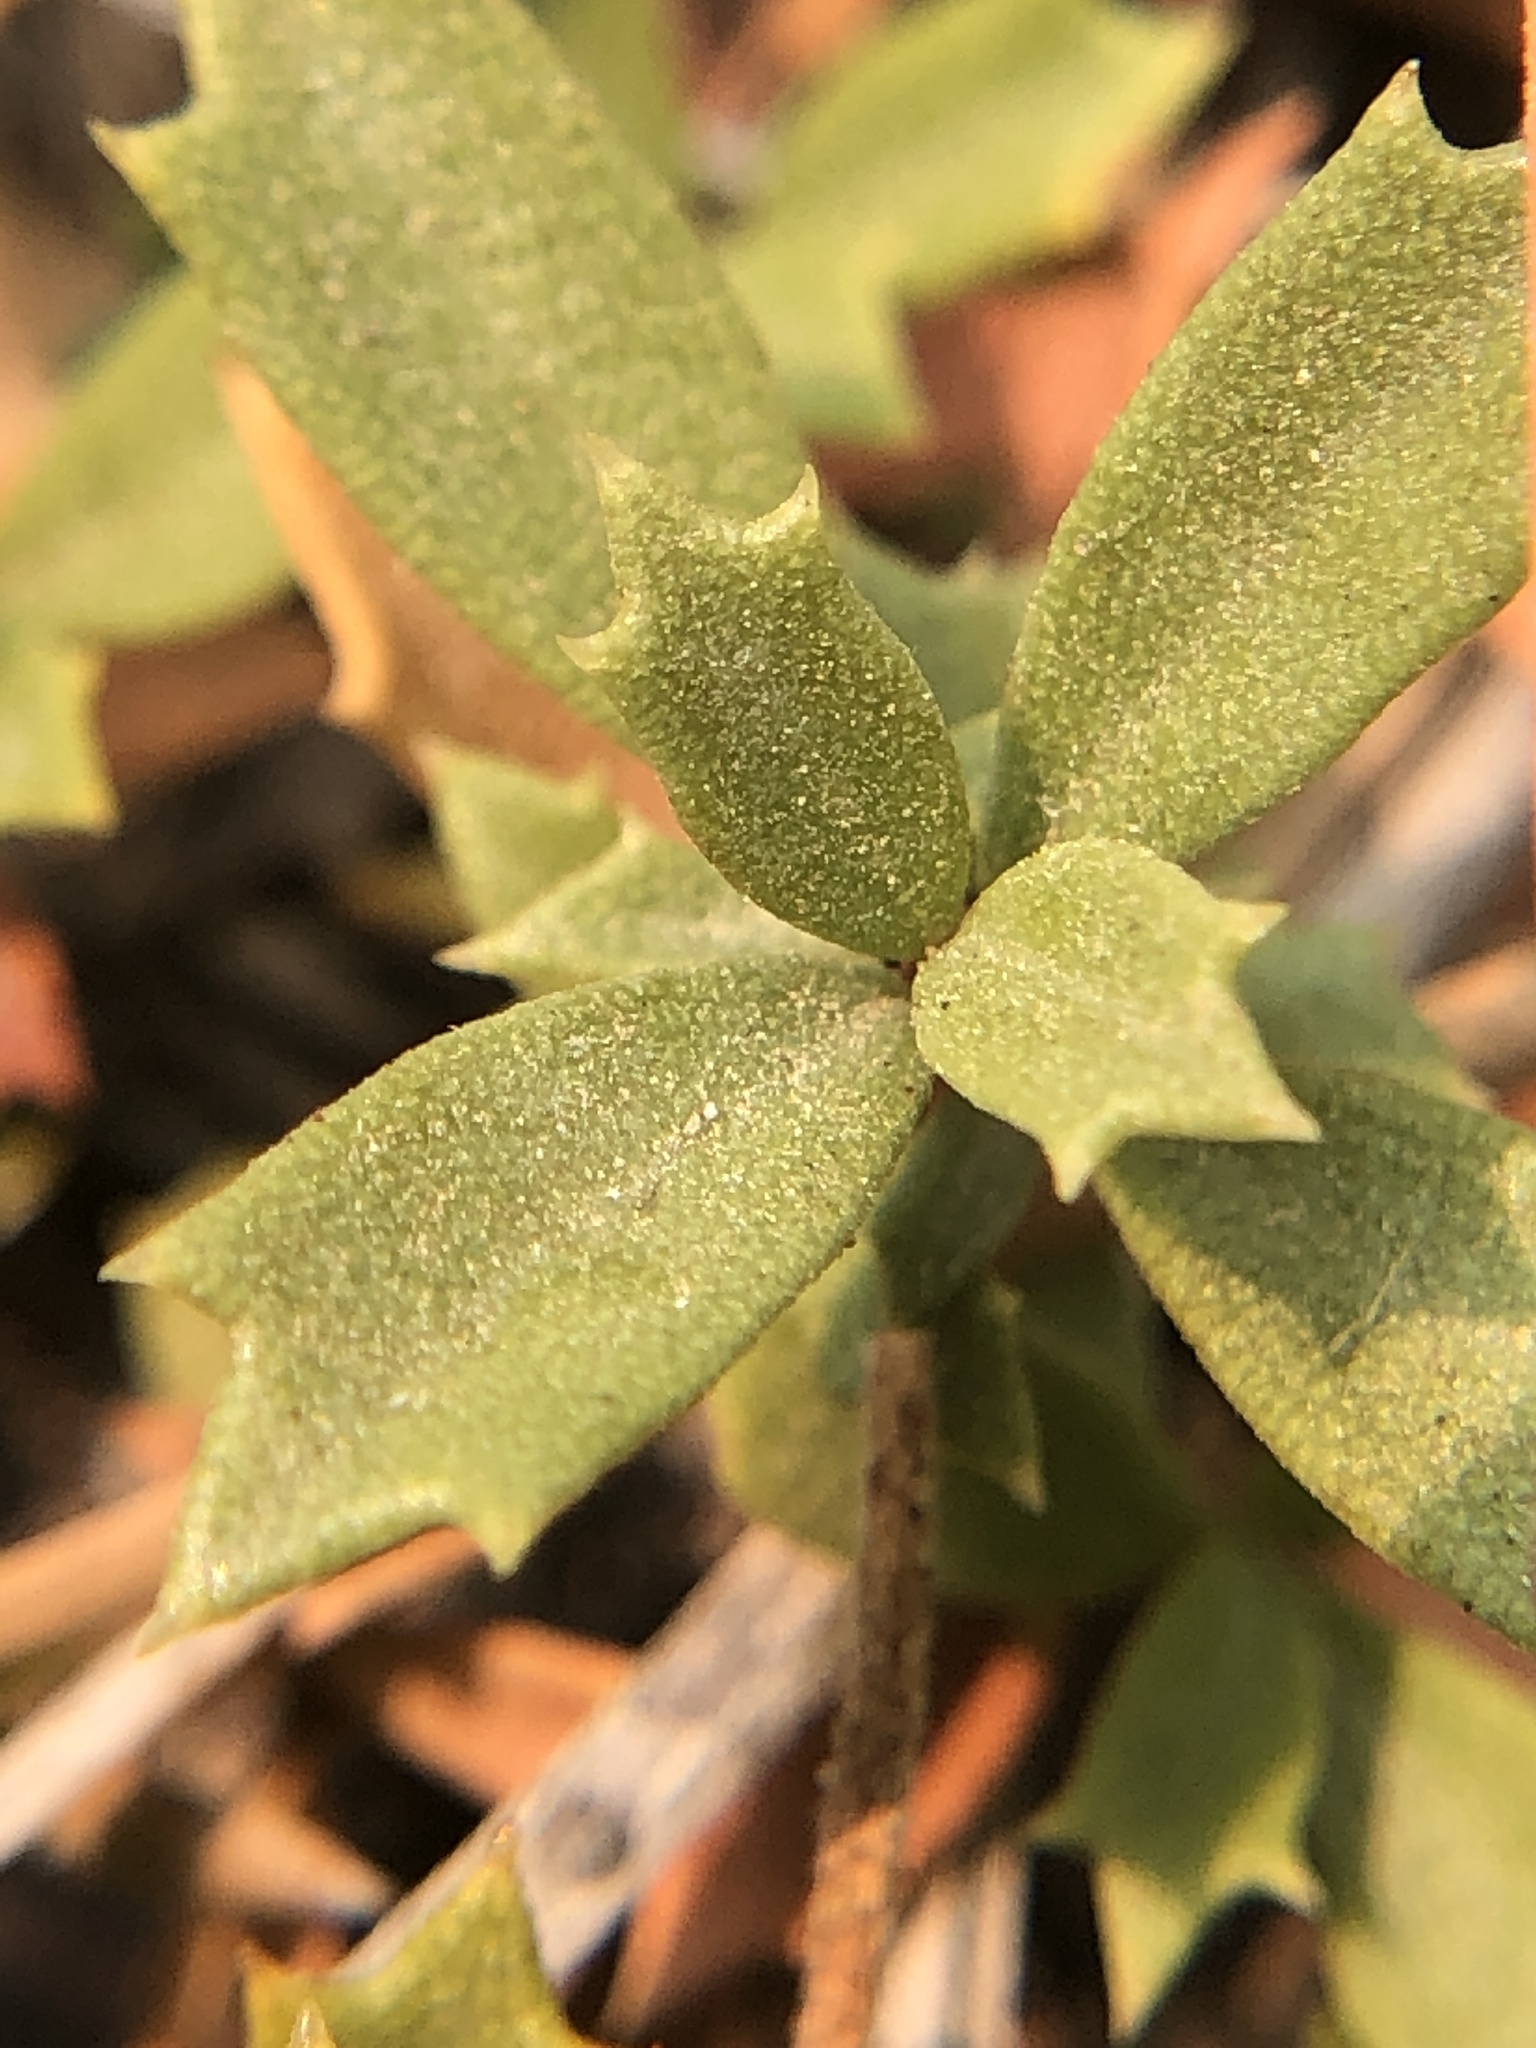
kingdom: Plantae
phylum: Tracheophyta
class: Magnoliopsida
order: Rosales
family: Rhamnaceae
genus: Ceanothus
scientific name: Ceanothus prostratus
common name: Mahala-mat
